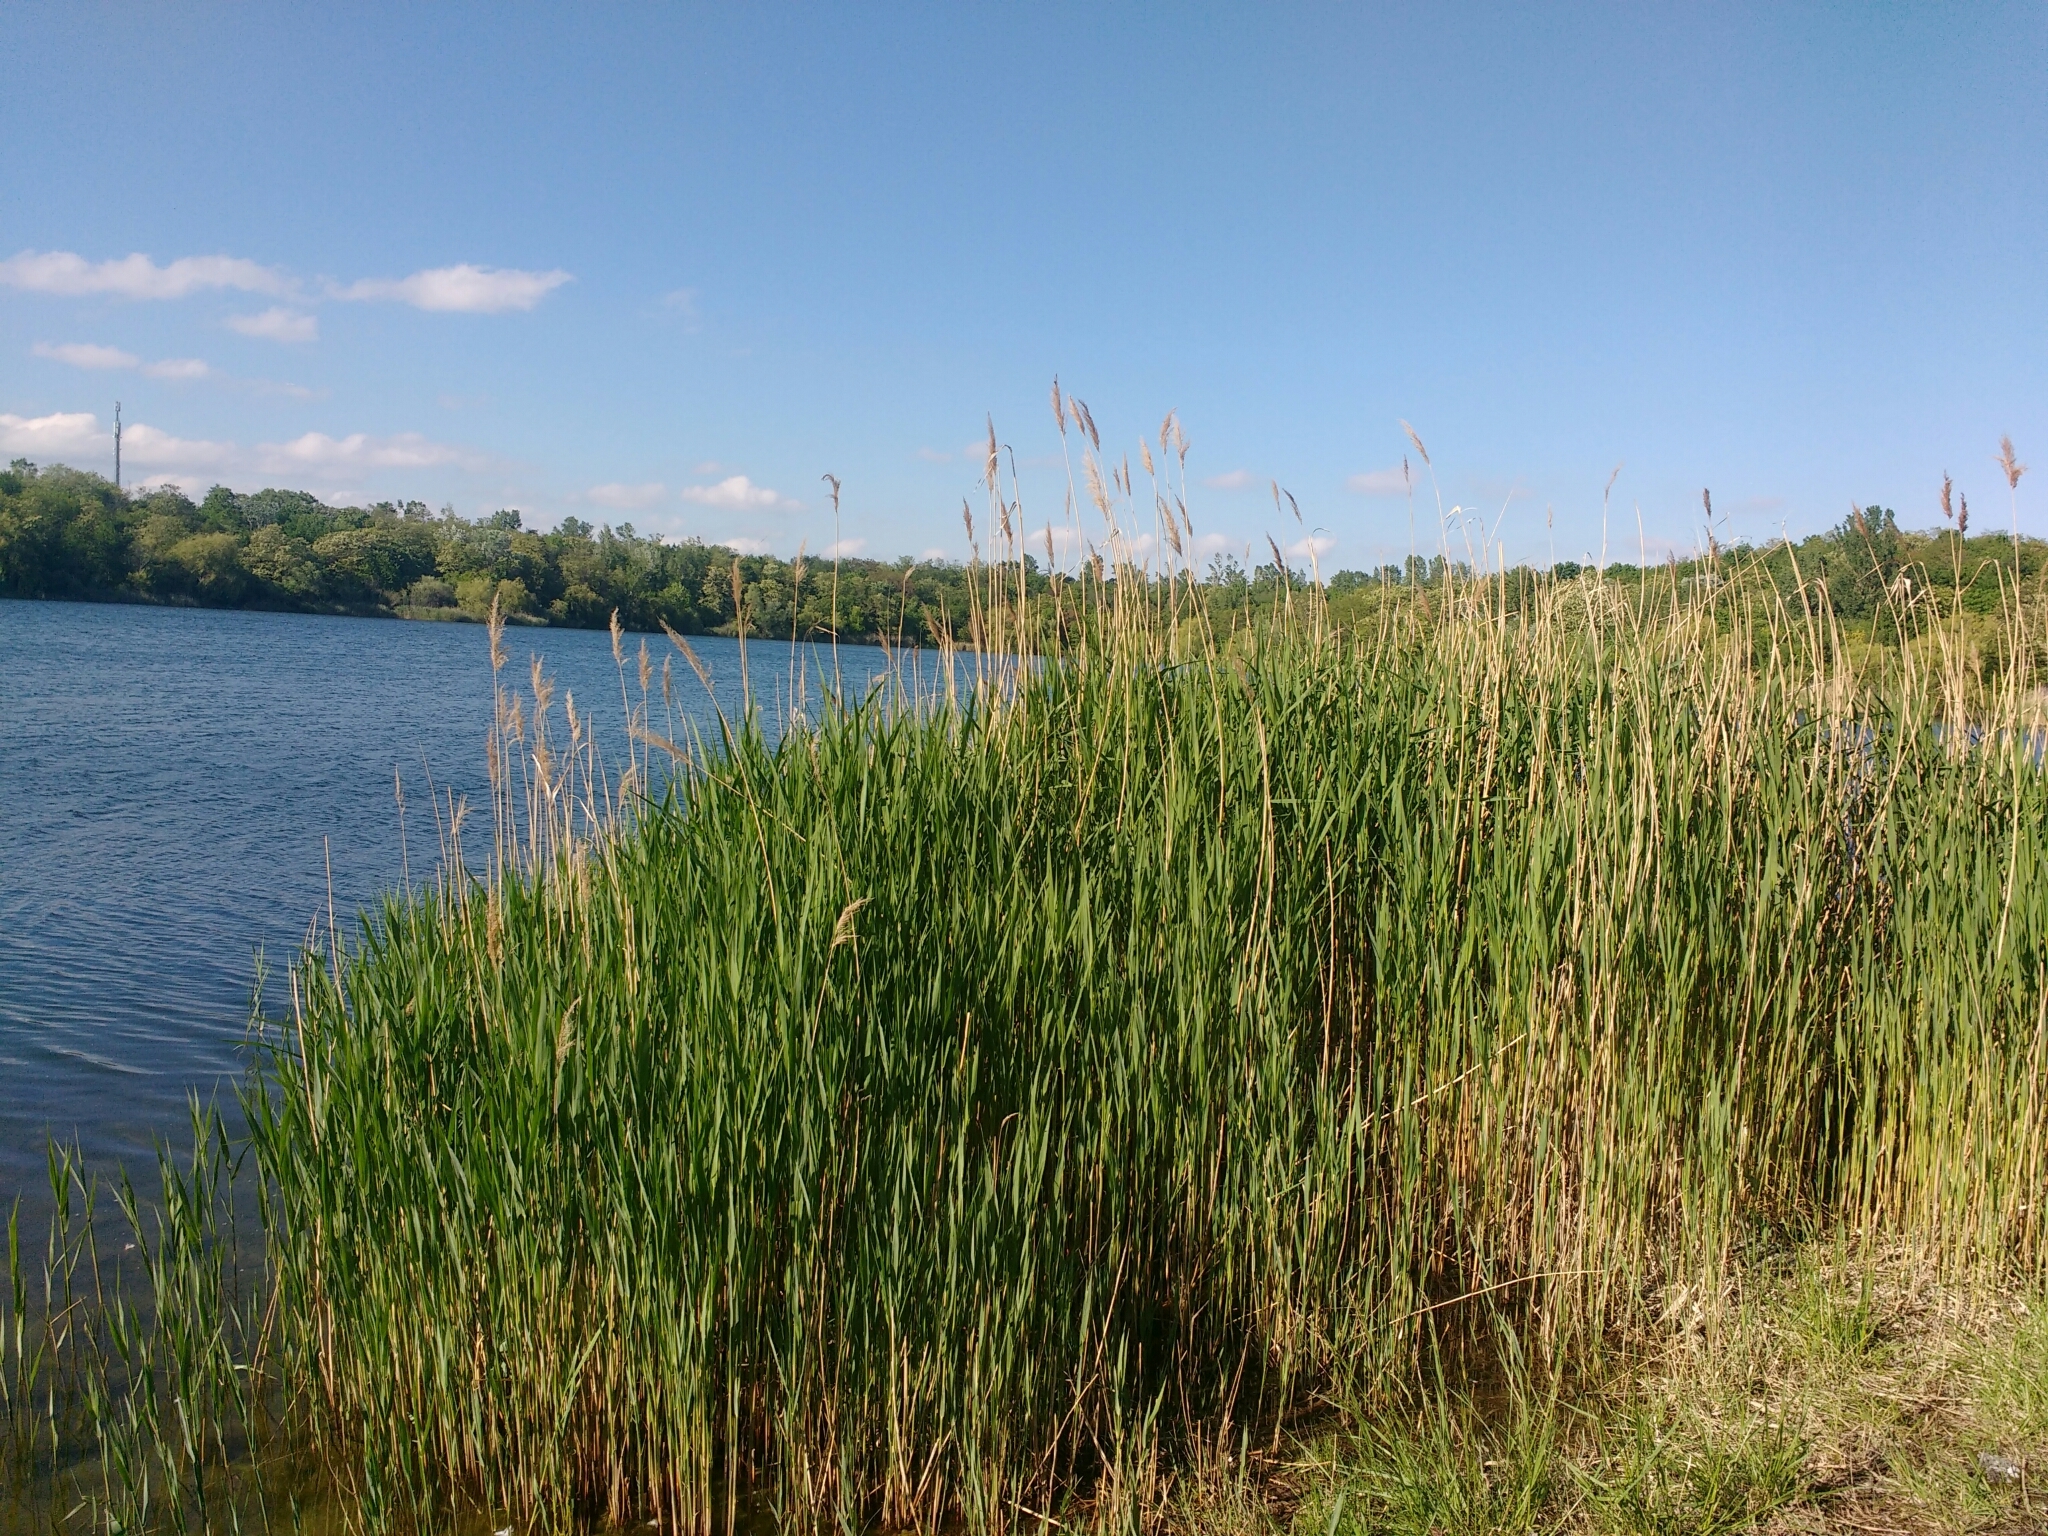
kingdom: Plantae
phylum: Tracheophyta
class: Liliopsida
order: Poales
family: Poaceae
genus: Phragmites
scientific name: Phragmites australis
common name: Common reed
